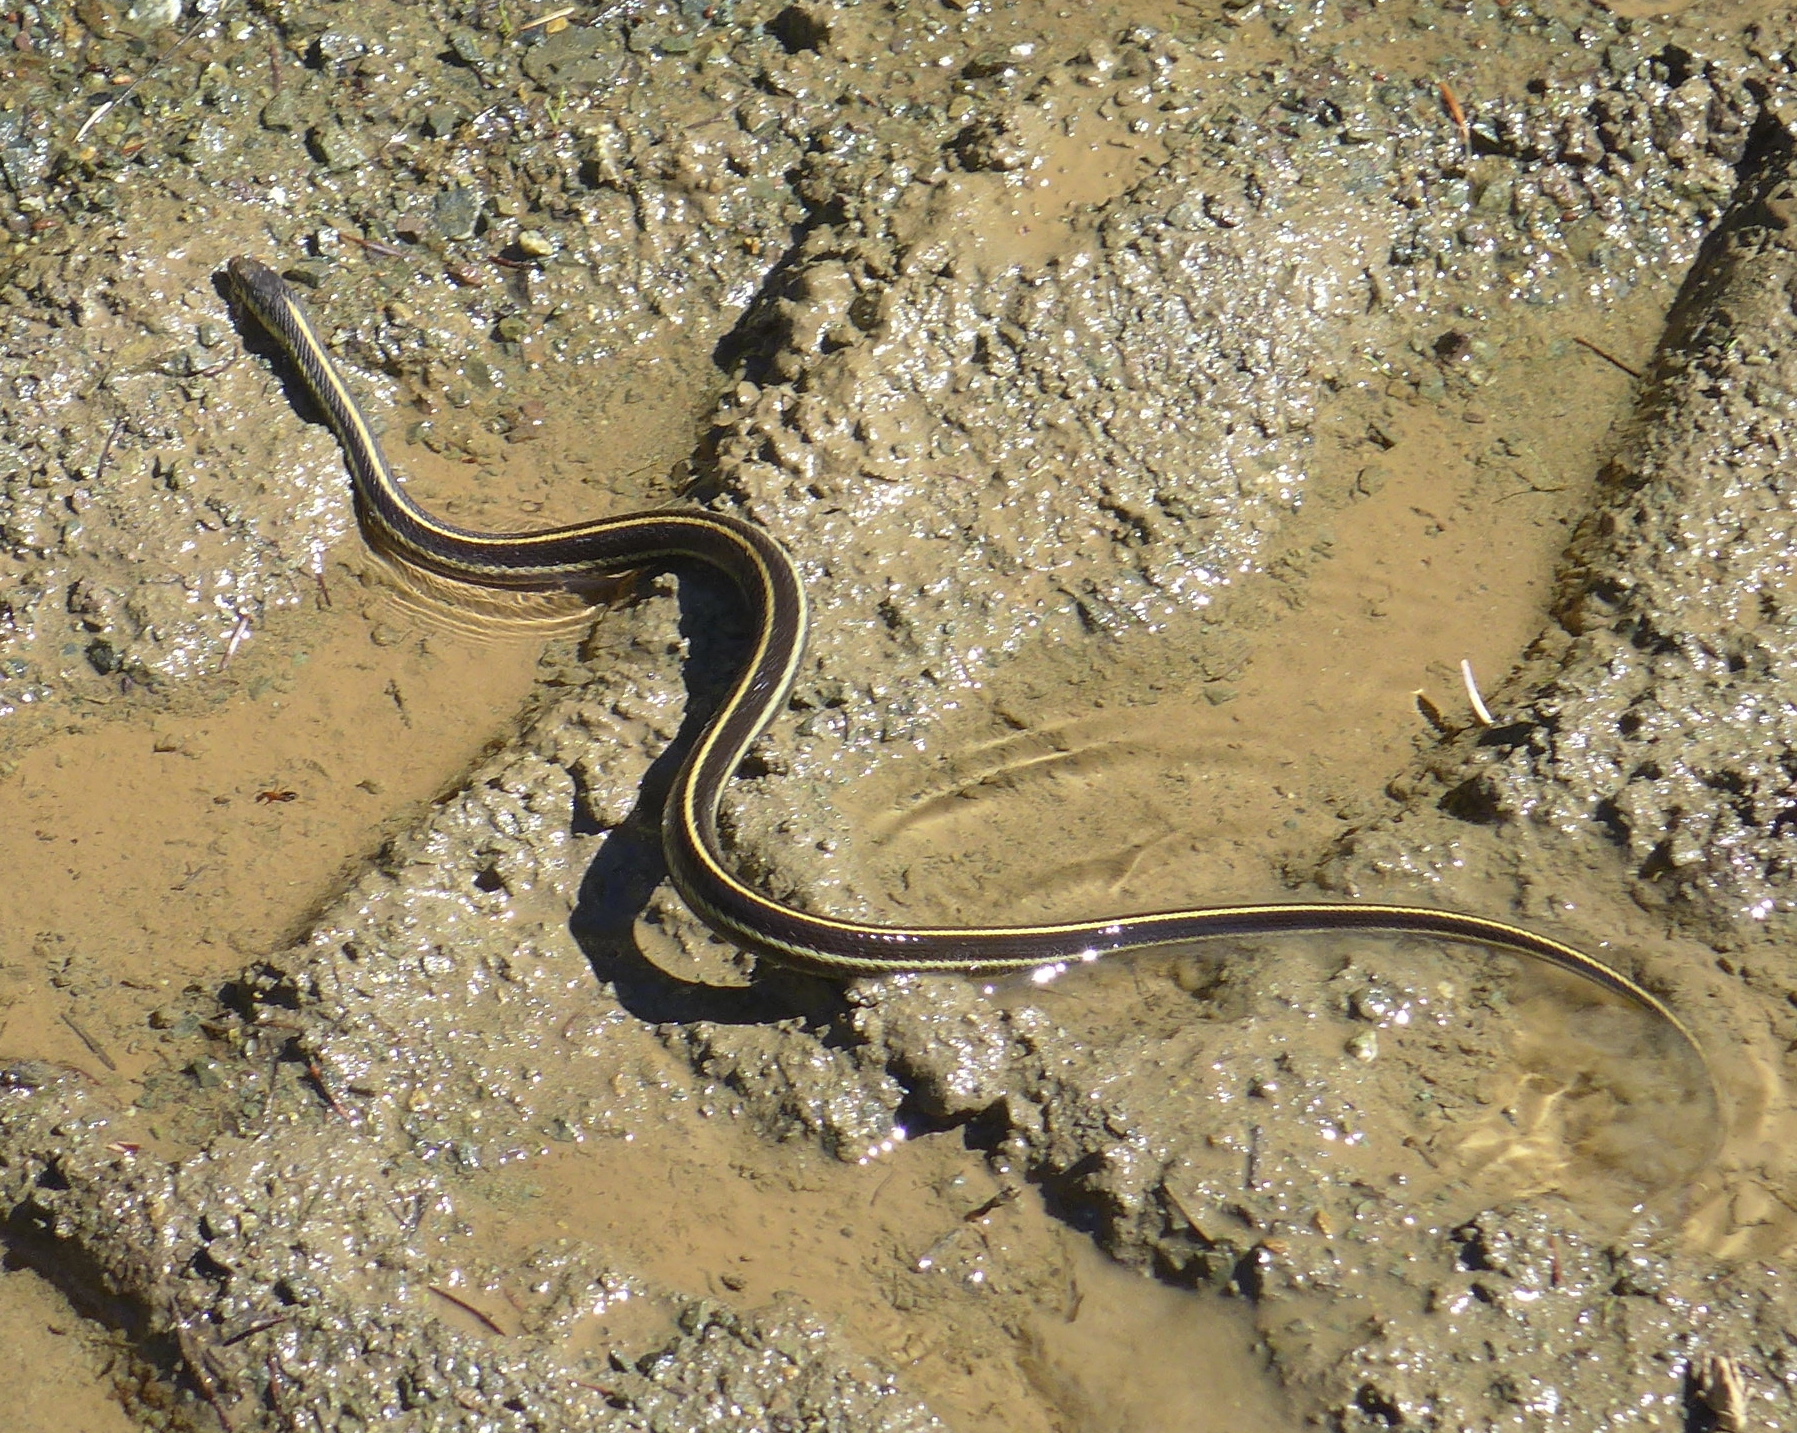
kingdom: Animalia
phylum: Chordata
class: Squamata
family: Colubridae
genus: Thamnophis
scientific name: Thamnophis elegans
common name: Western terrestrial garter snake
